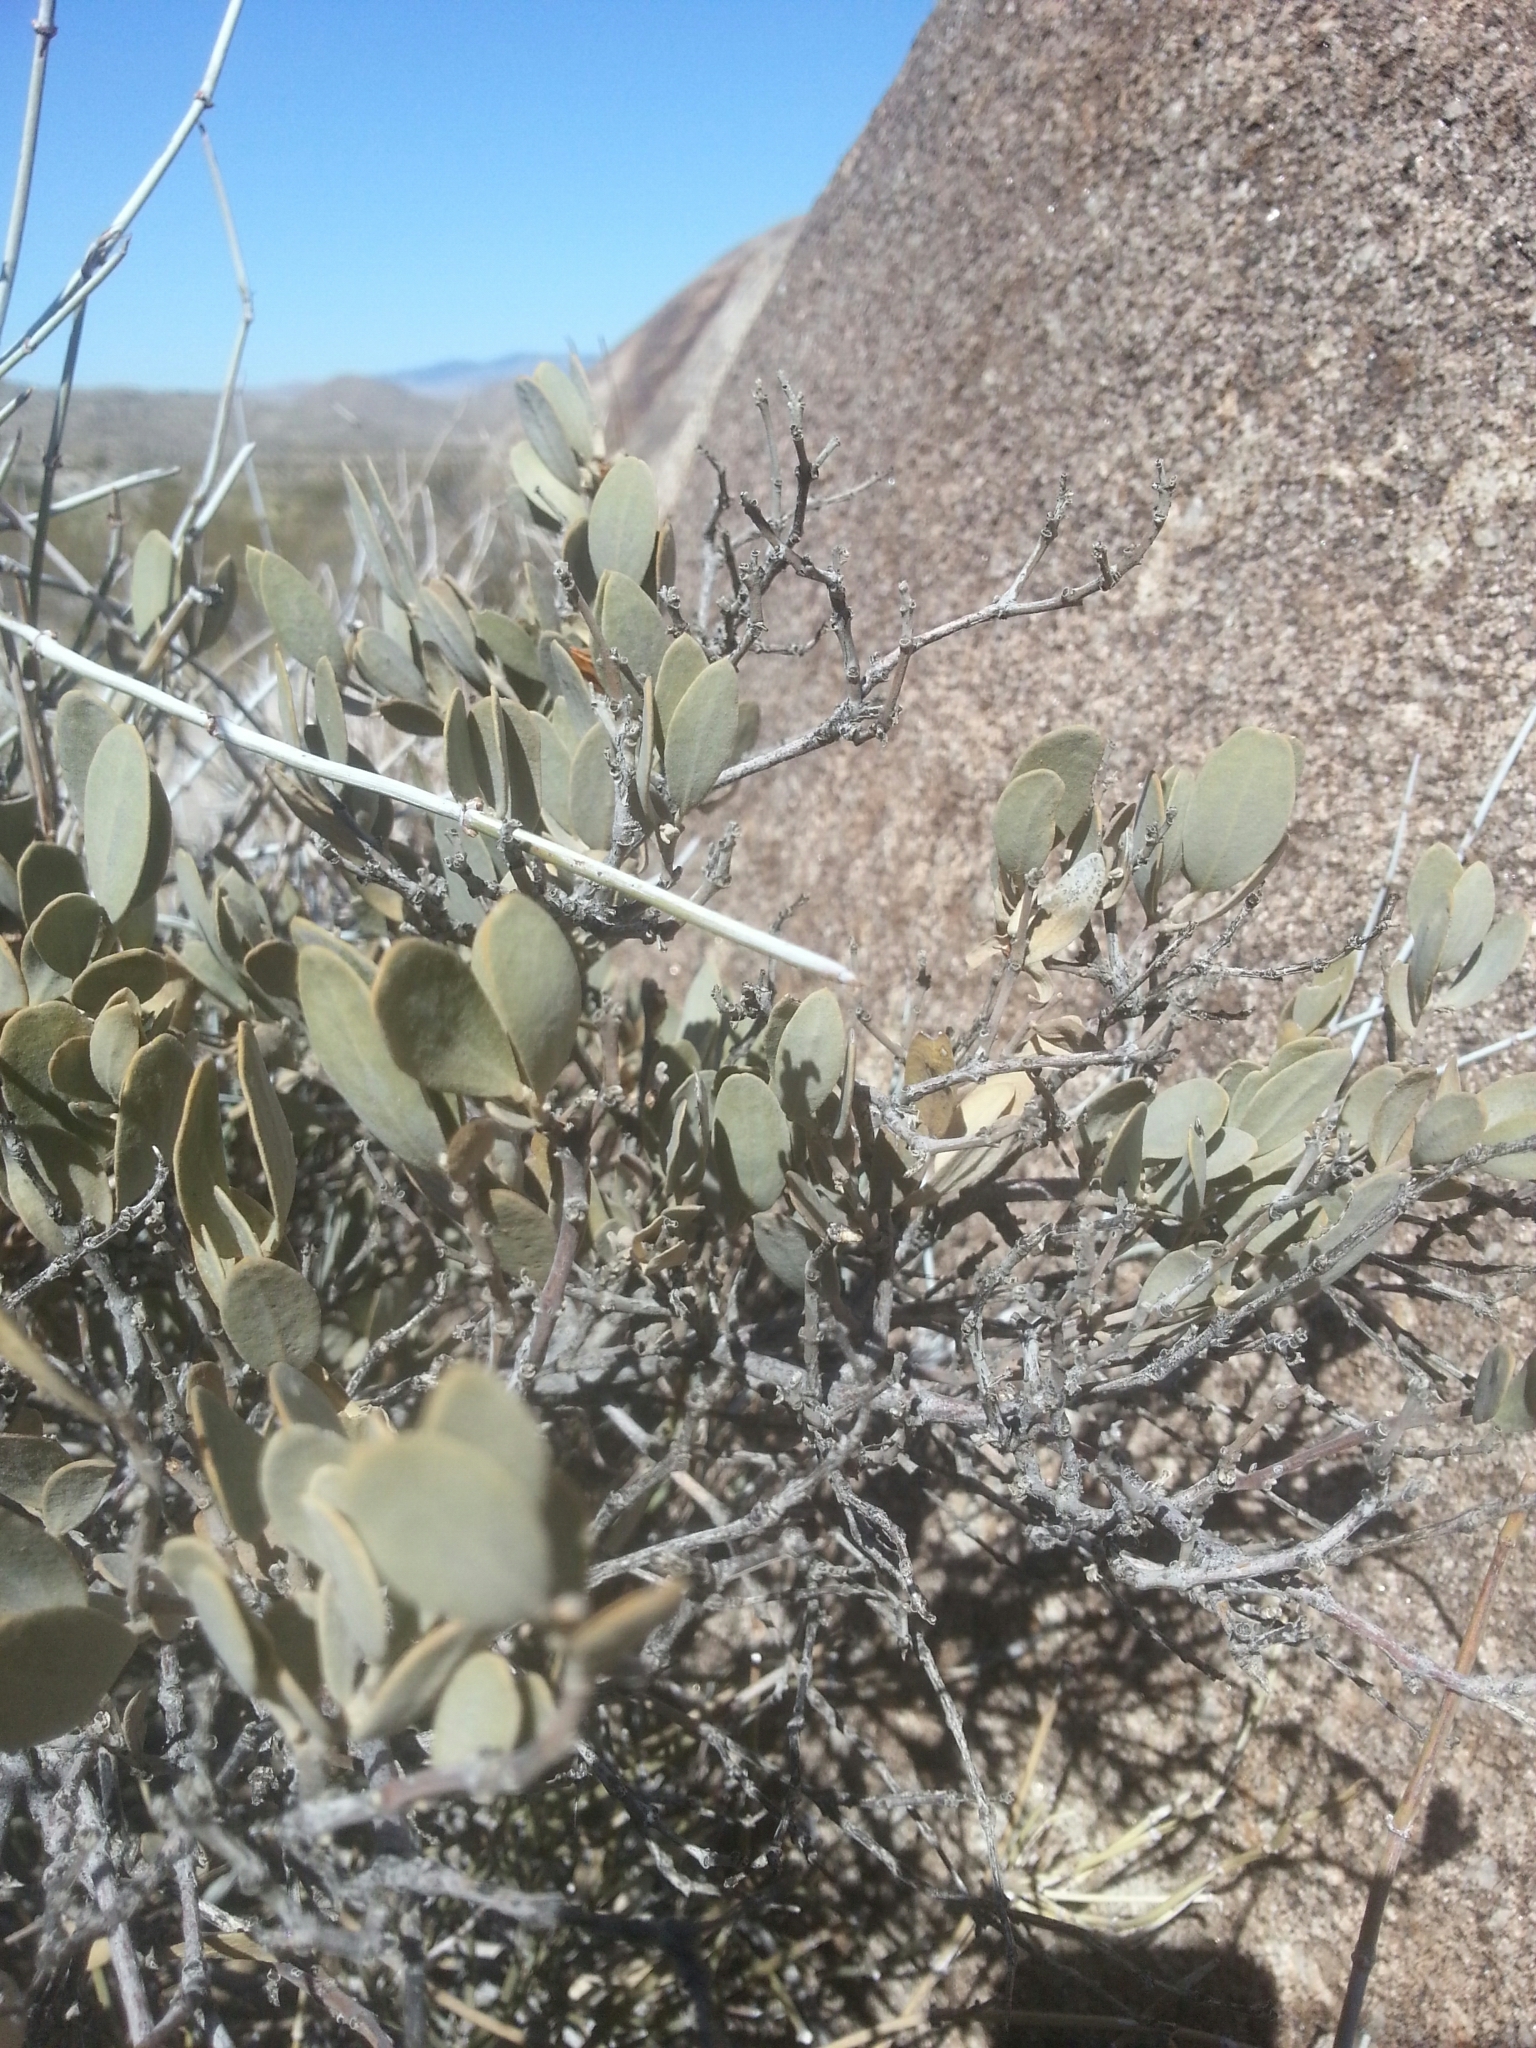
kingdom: Plantae
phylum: Tracheophyta
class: Magnoliopsida
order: Caryophyllales
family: Simmondsiaceae
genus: Simmondsia
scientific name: Simmondsia chinensis
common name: Jojoba
